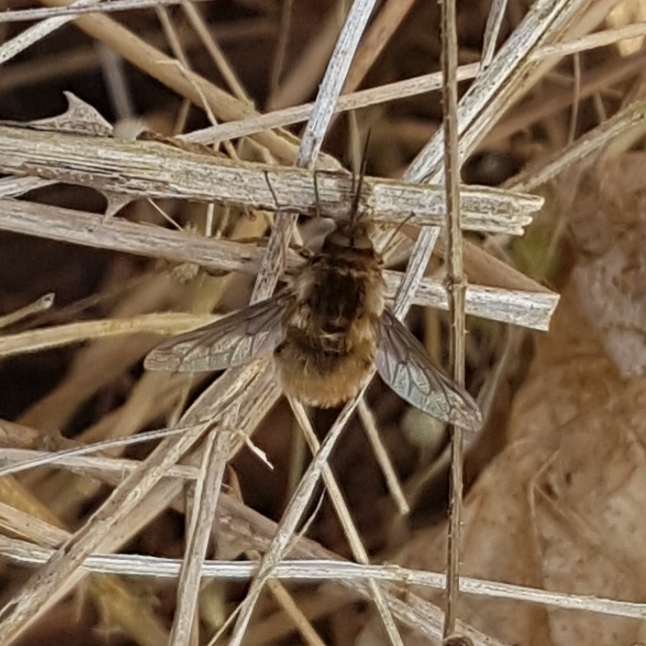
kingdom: Animalia
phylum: Arthropoda
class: Insecta
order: Diptera
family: Bombyliidae
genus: Bombylius
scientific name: Bombylius major
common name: Bee fly
